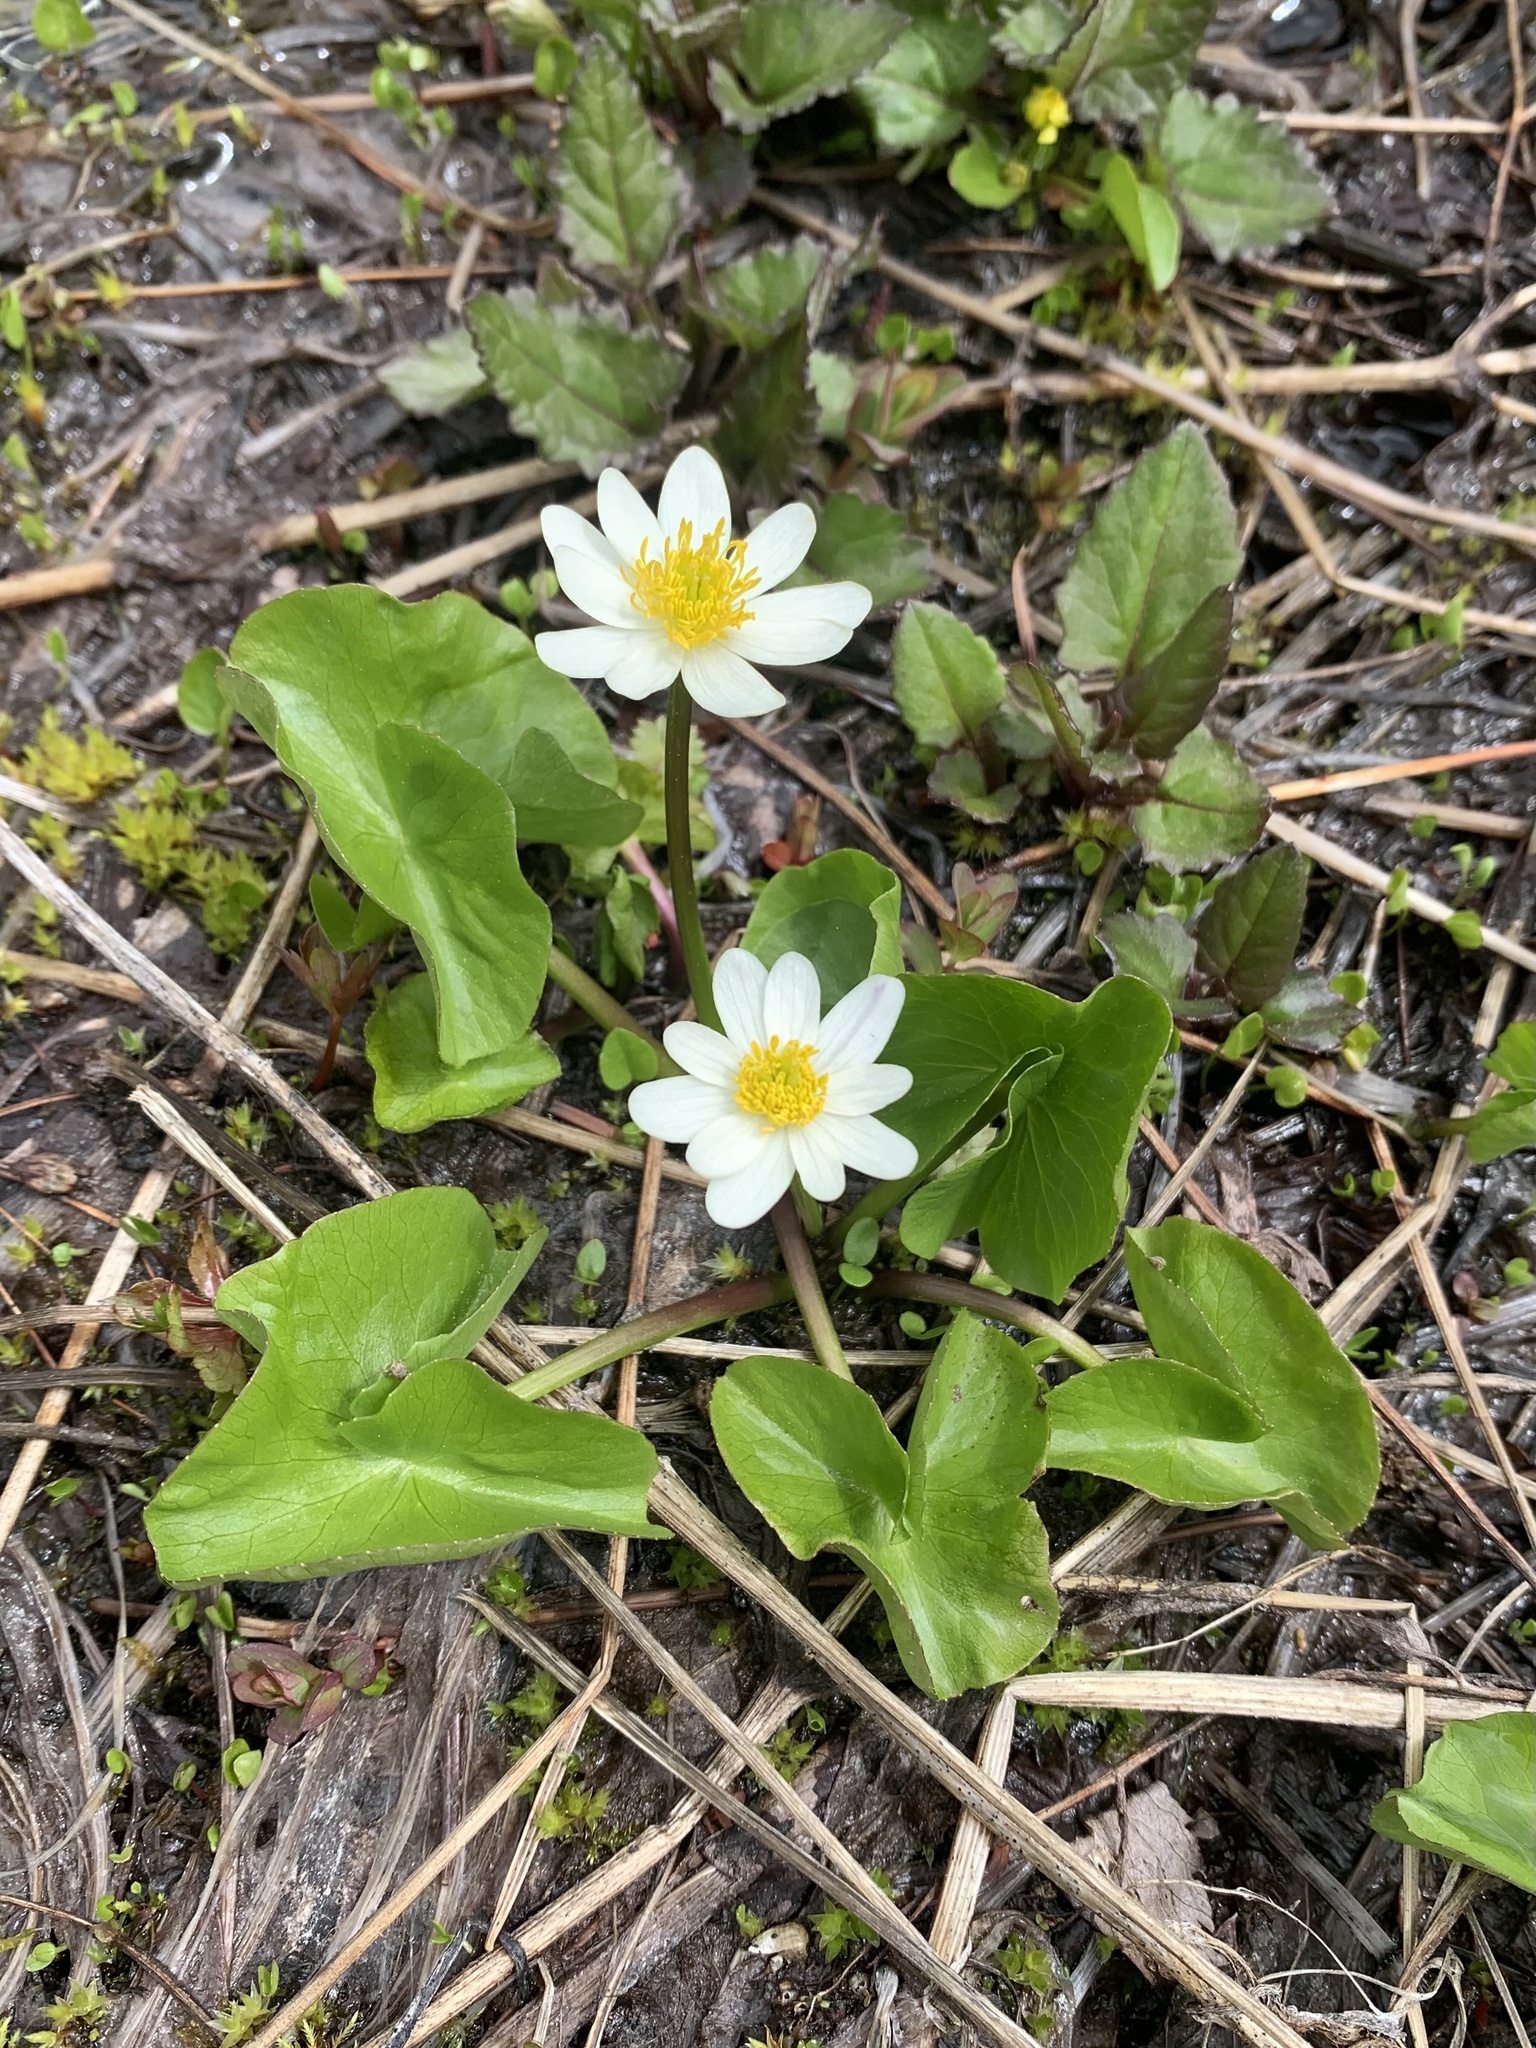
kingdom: Plantae
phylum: Tracheophyta
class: Magnoliopsida
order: Ranunculales
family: Ranunculaceae
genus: Caltha
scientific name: Caltha leptosepala
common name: Elkslip
